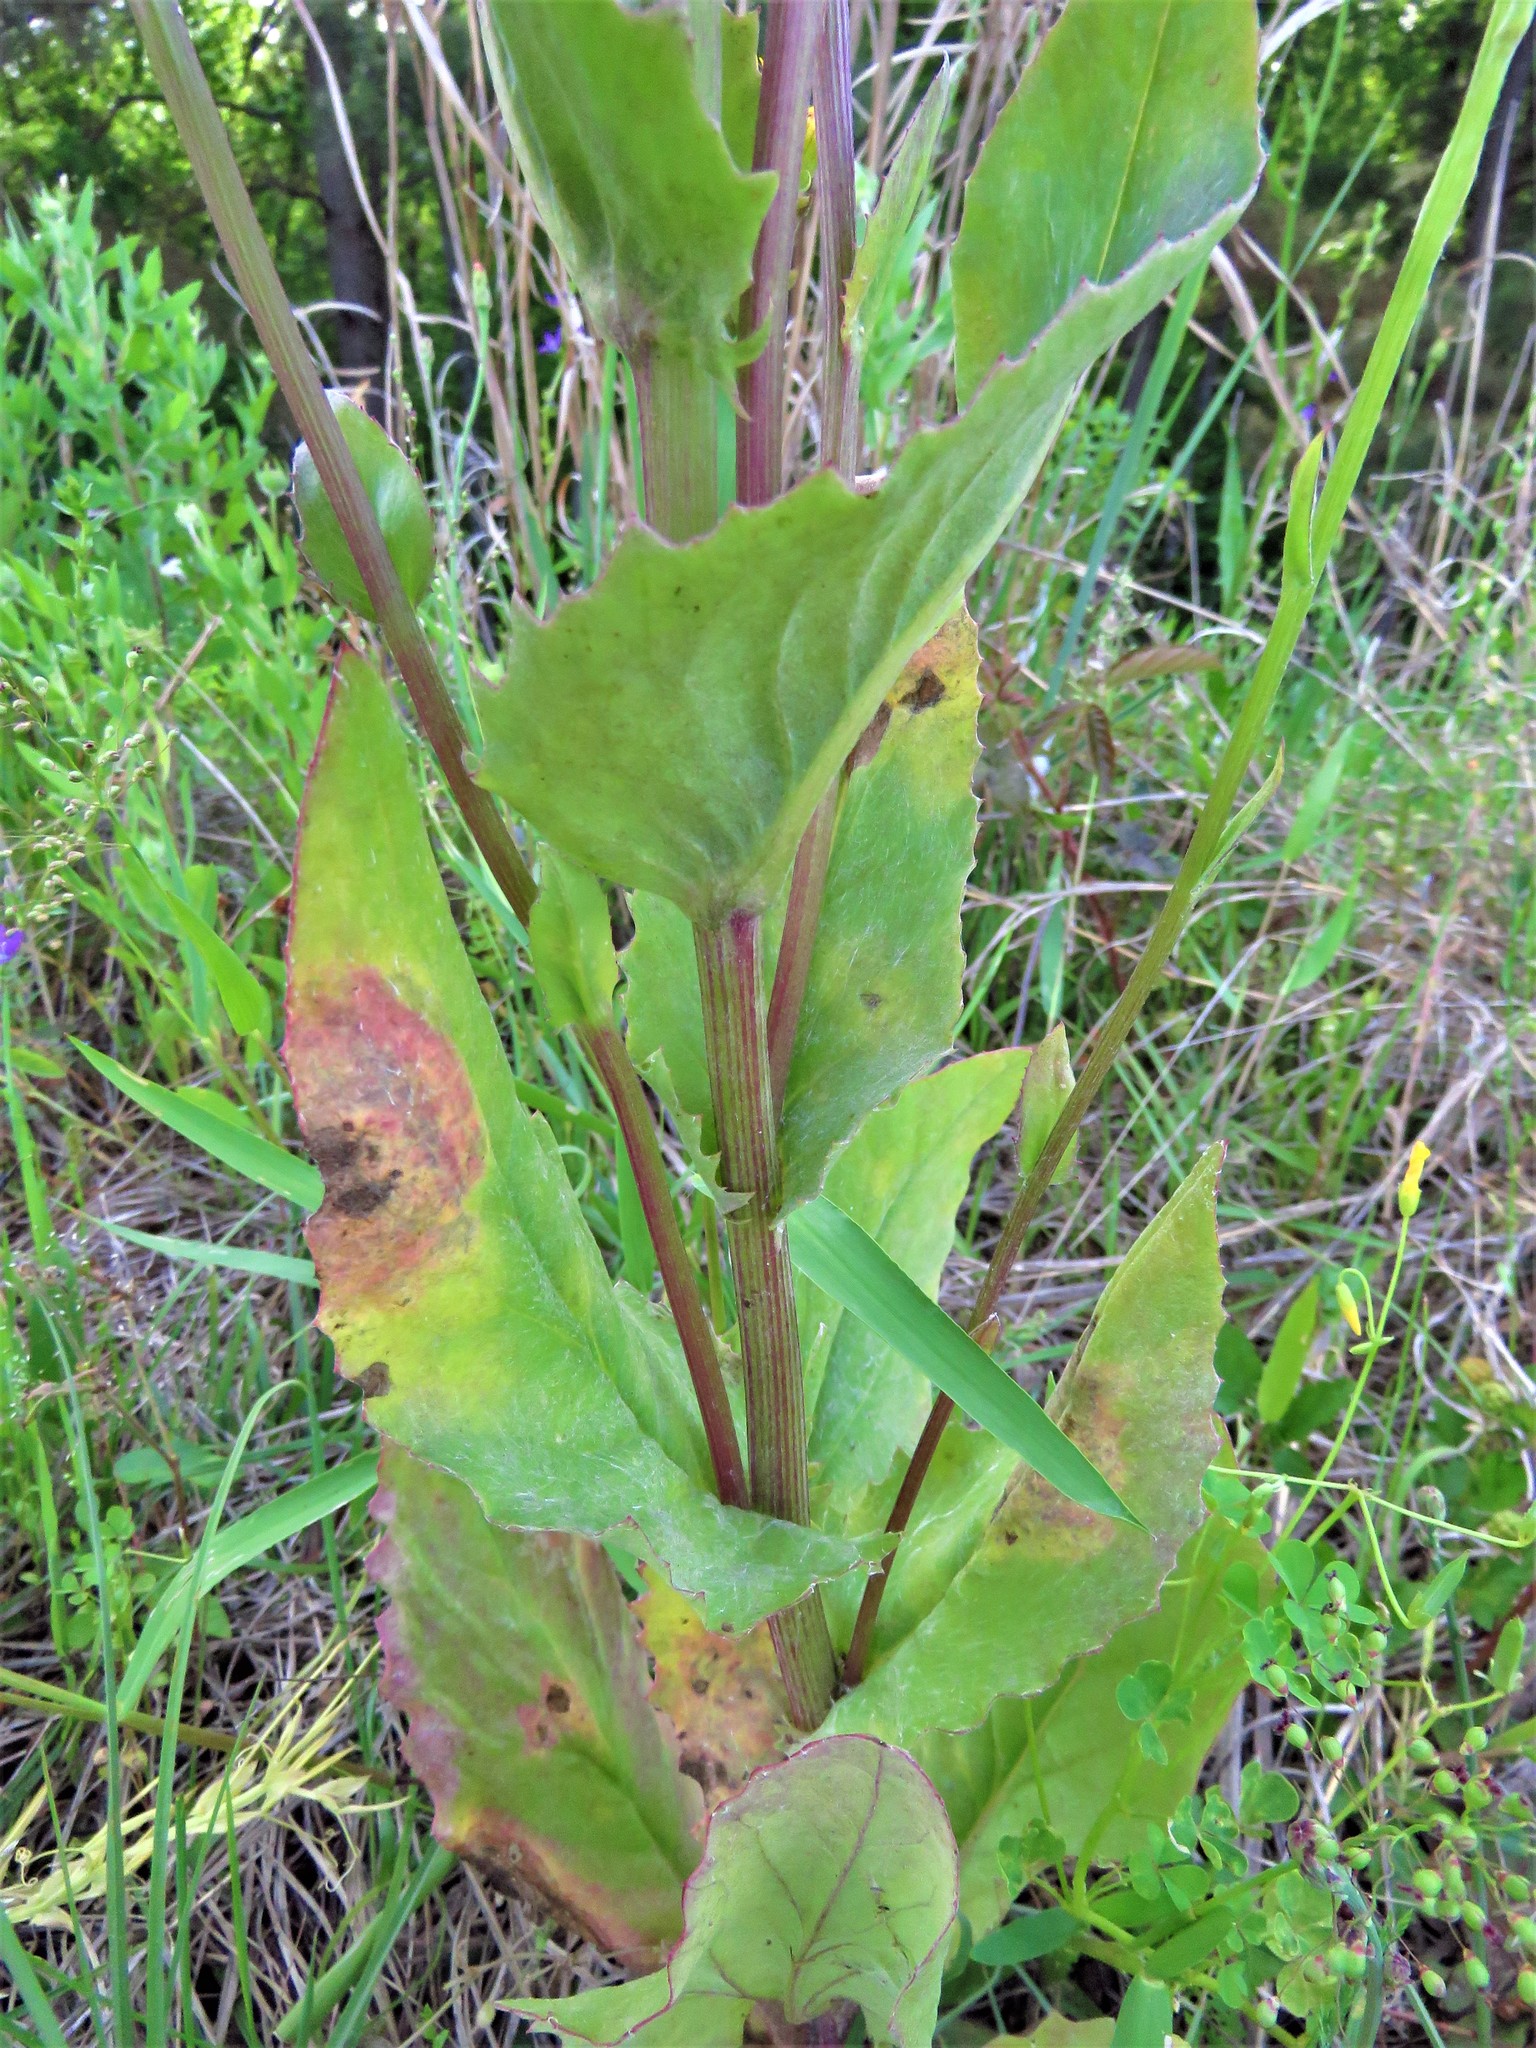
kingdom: Plantae
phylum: Tracheophyta
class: Magnoliopsida
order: Asterales
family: Asteraceae
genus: Senecio
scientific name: Senecio ampullaceus
